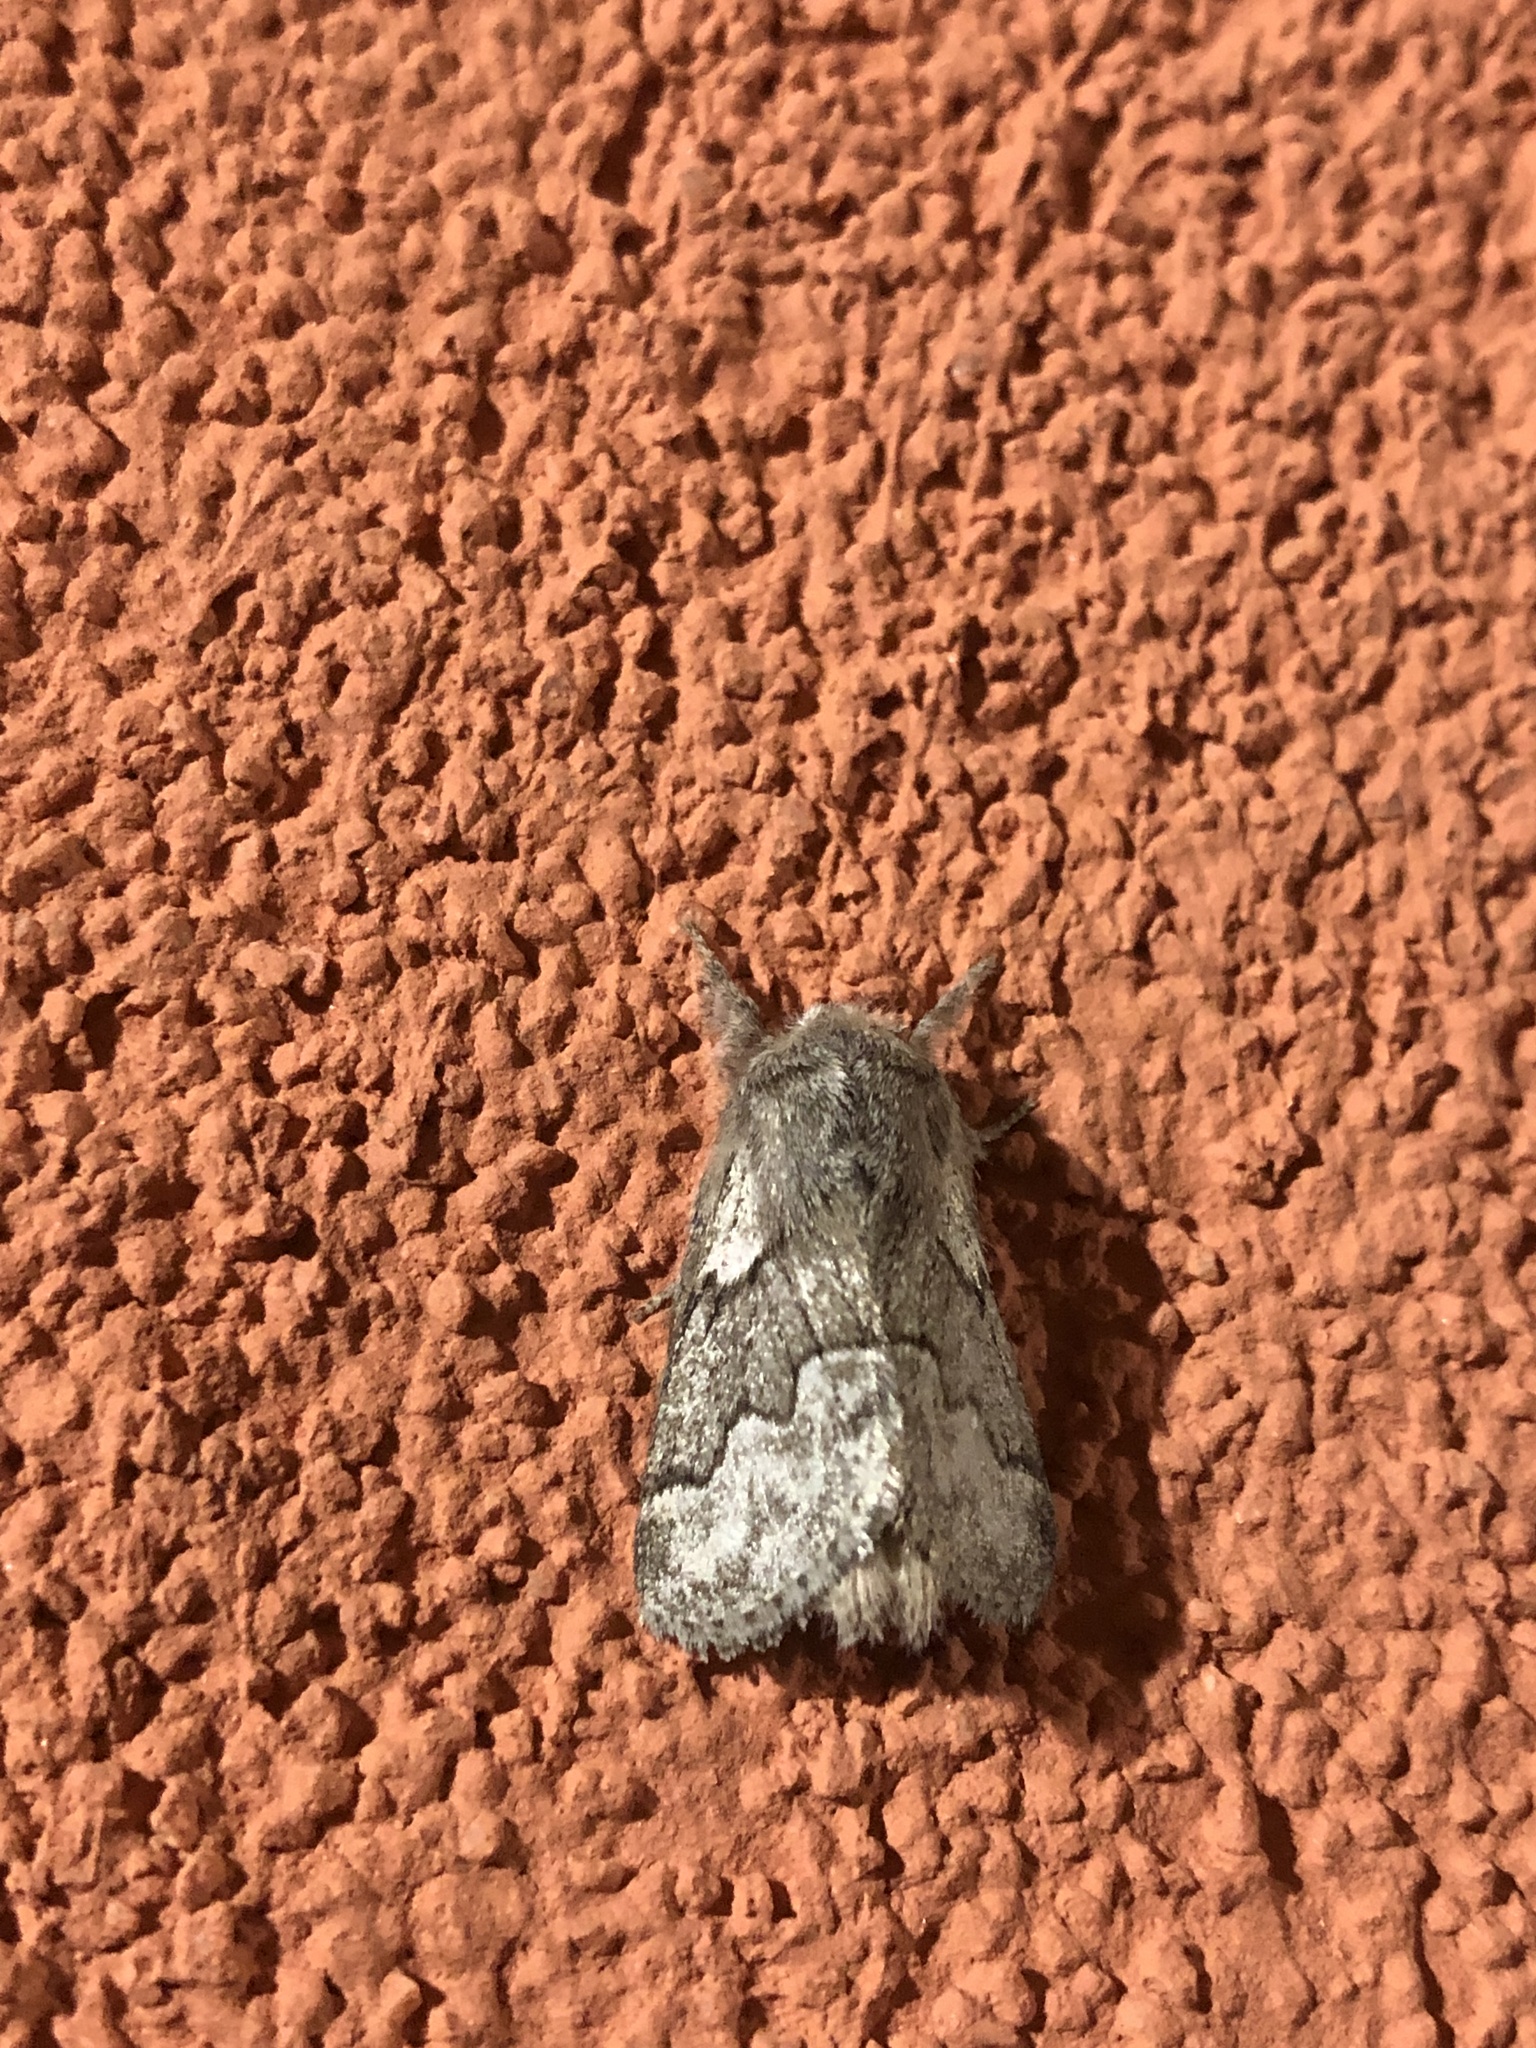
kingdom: Animalia
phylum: Arthropoda
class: Insecta
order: Lepidoptera
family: Lasiocampidae
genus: Trichiura
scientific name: Trichiura crataegi
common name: Pale eggar
